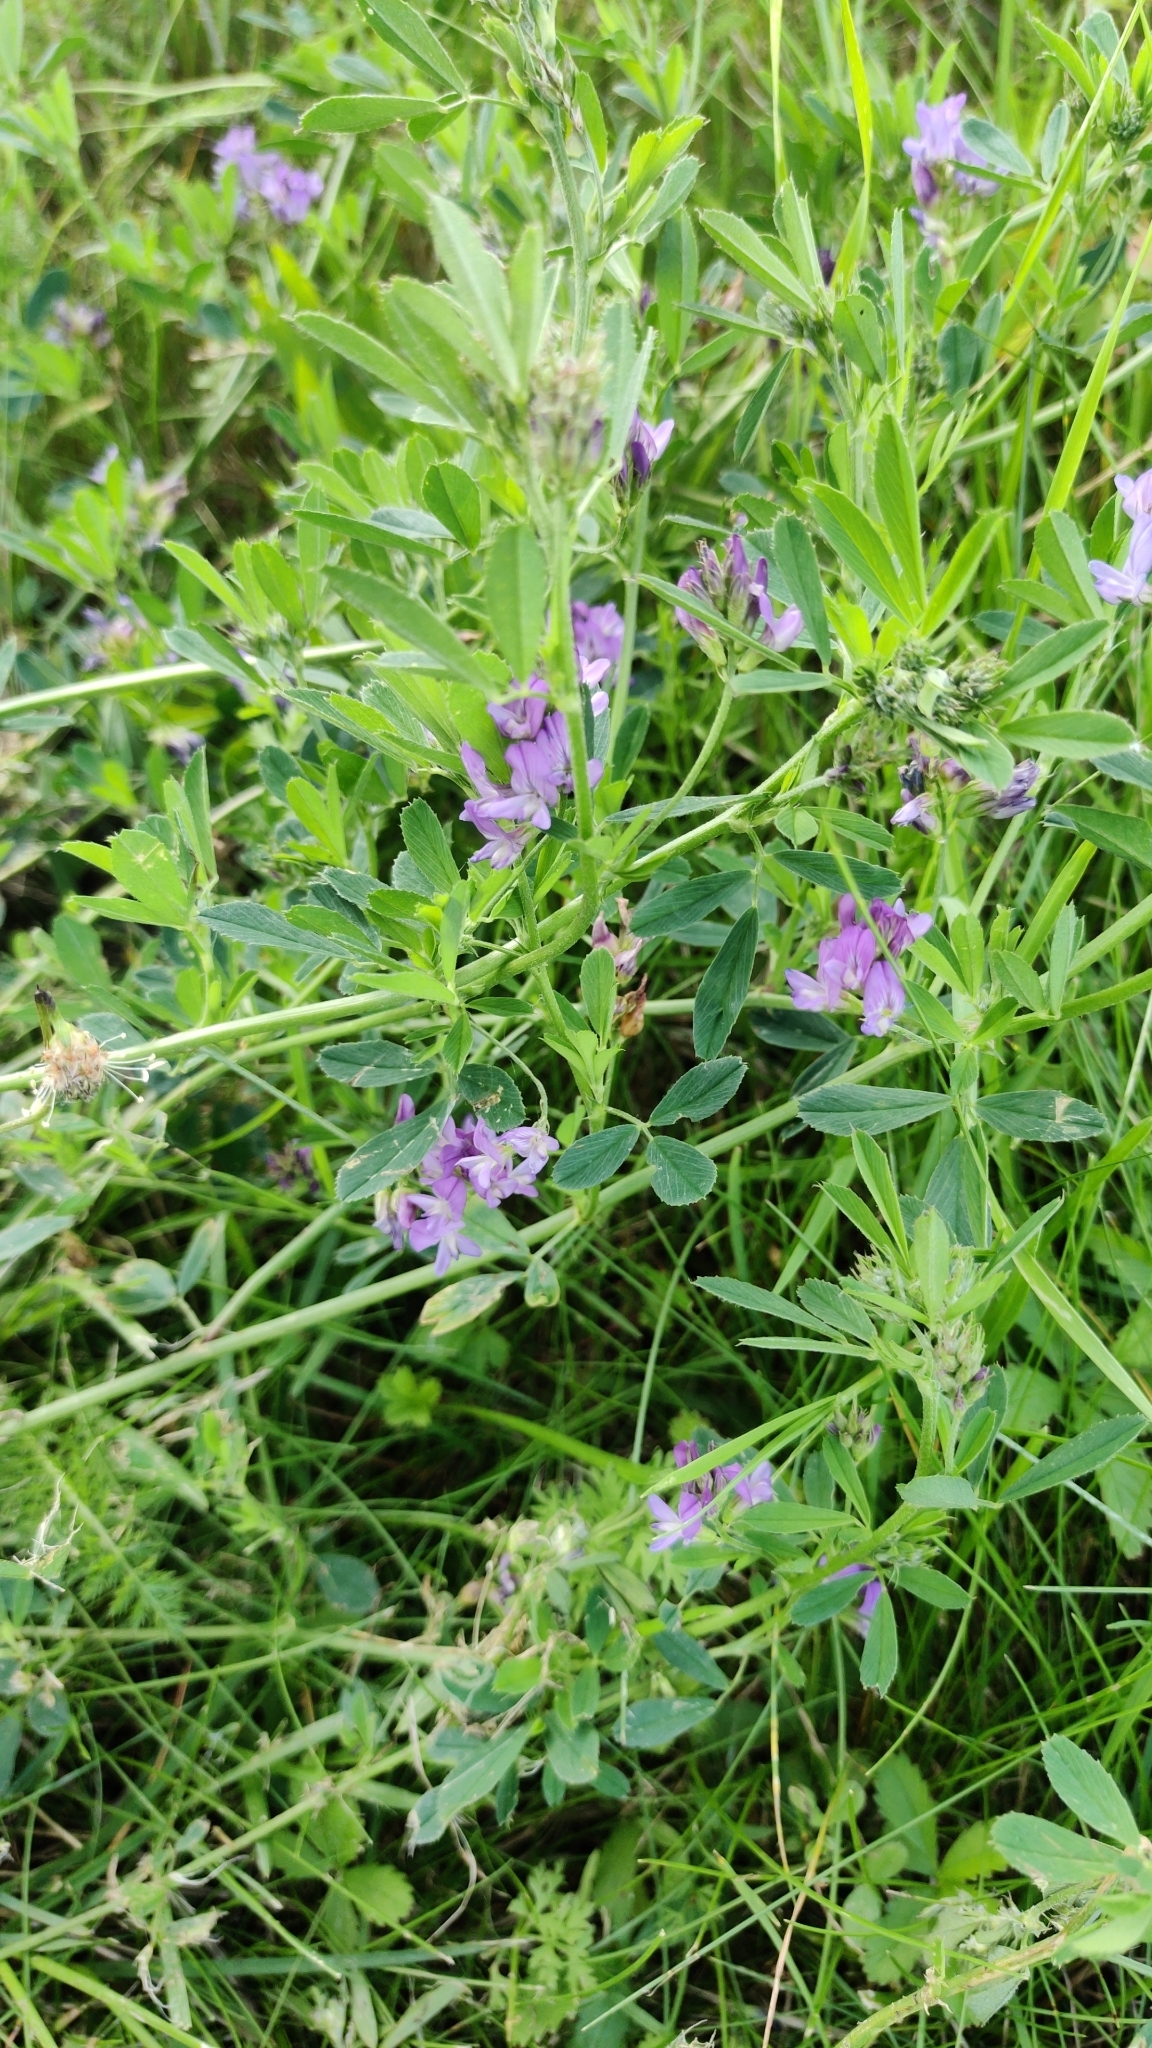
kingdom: Plantae
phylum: Tracheophyta
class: Magnoliopsida
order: Fabales
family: Fabaceae
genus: Medicago
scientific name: Medicago sativa
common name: Alfalfa
